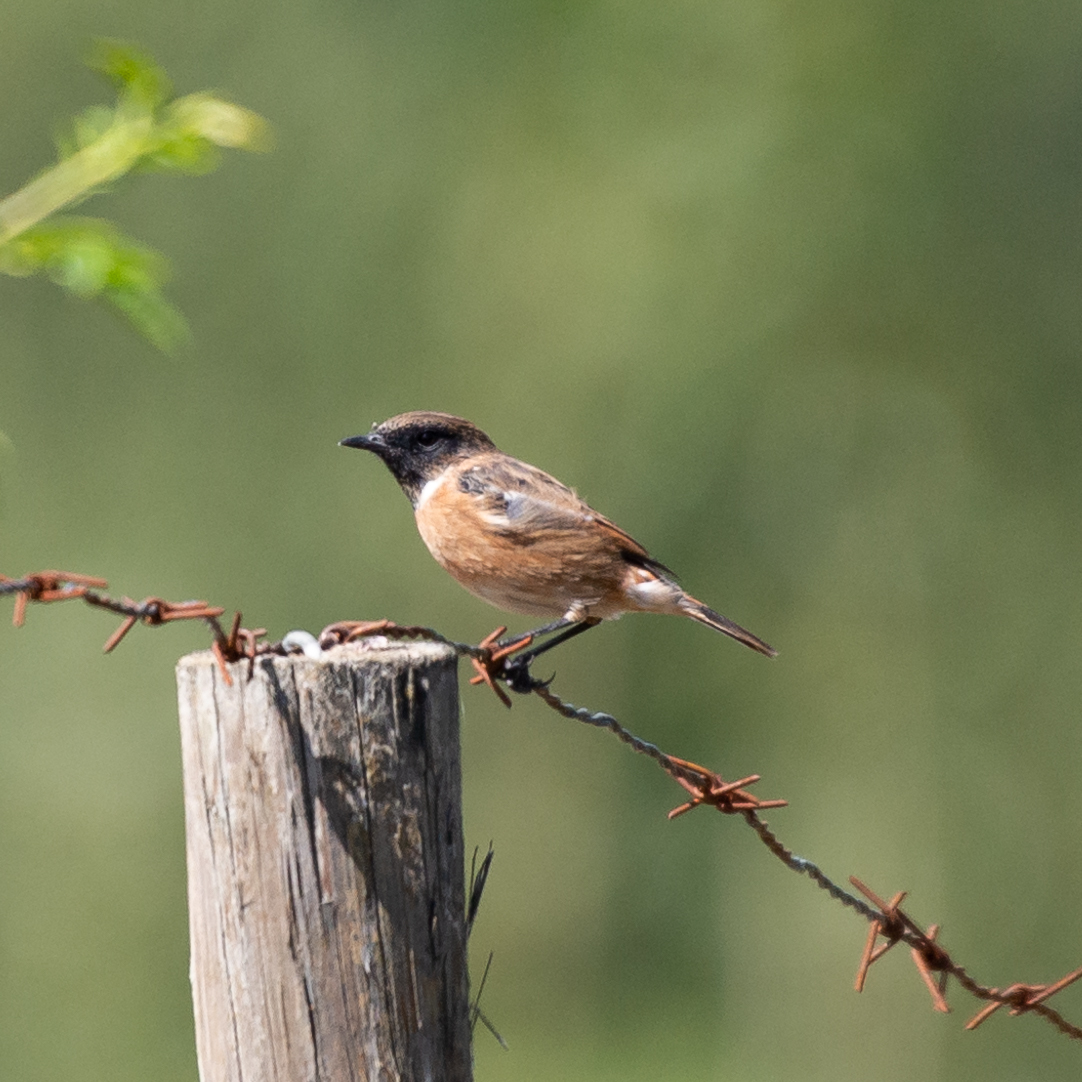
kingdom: Animalia
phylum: Chordata
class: Aves
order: Passeriformes
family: Muscicapidae
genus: Saxicola
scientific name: Saxicola rubicola
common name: European stonechat
